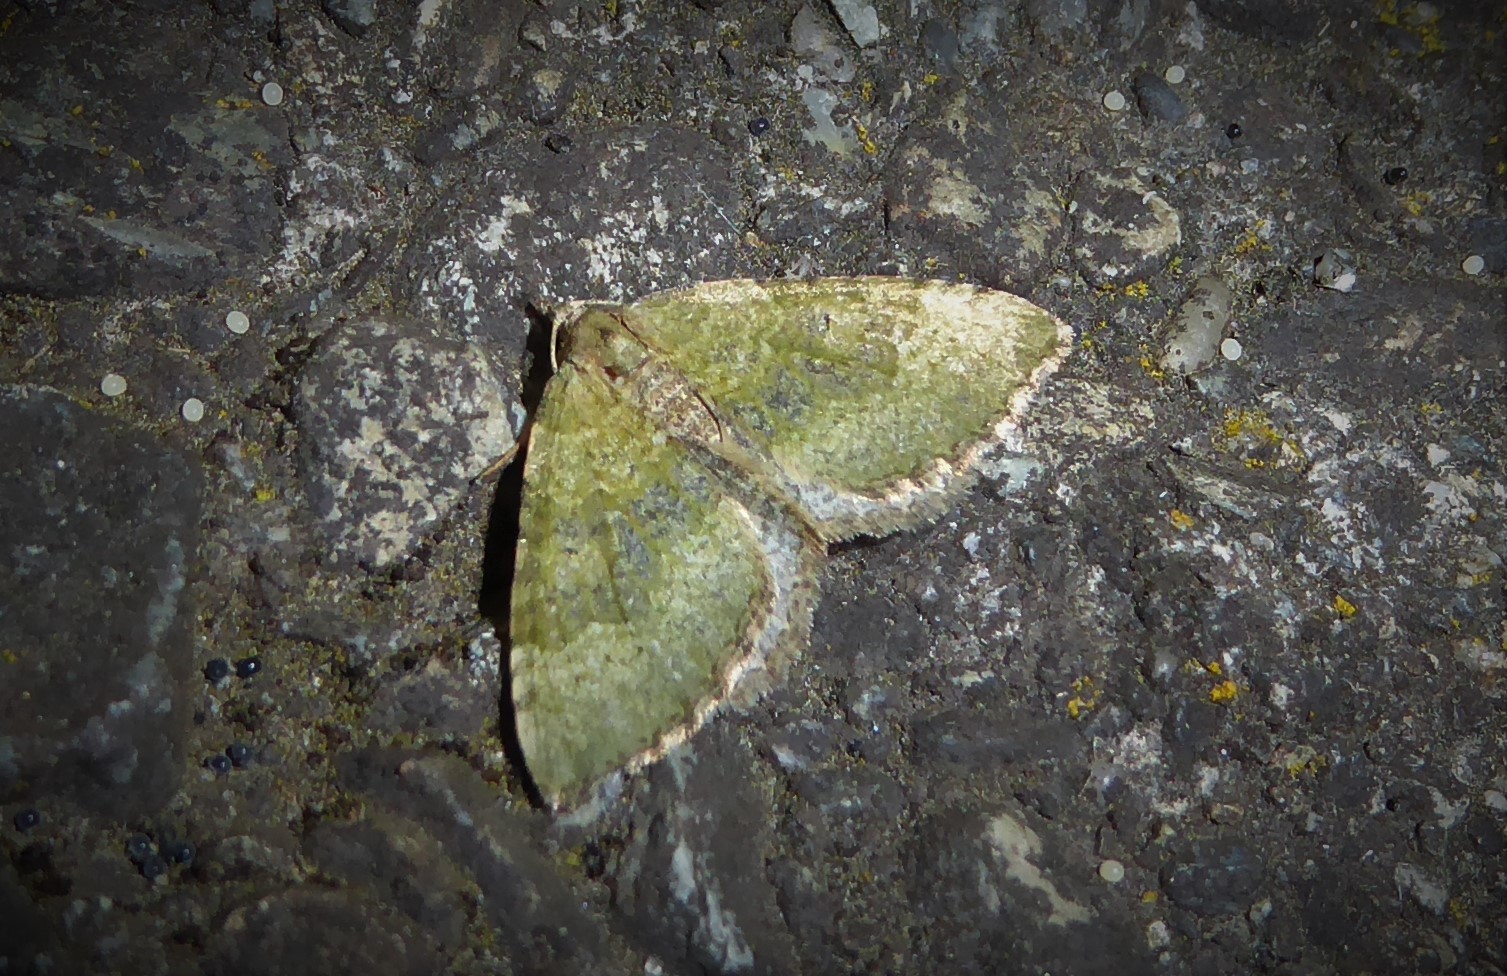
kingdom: Animalia
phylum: Arthropoda
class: Insecta
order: Lepidoptera
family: Geometridae
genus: Epyaxa
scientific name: Epyaxa rosearia
